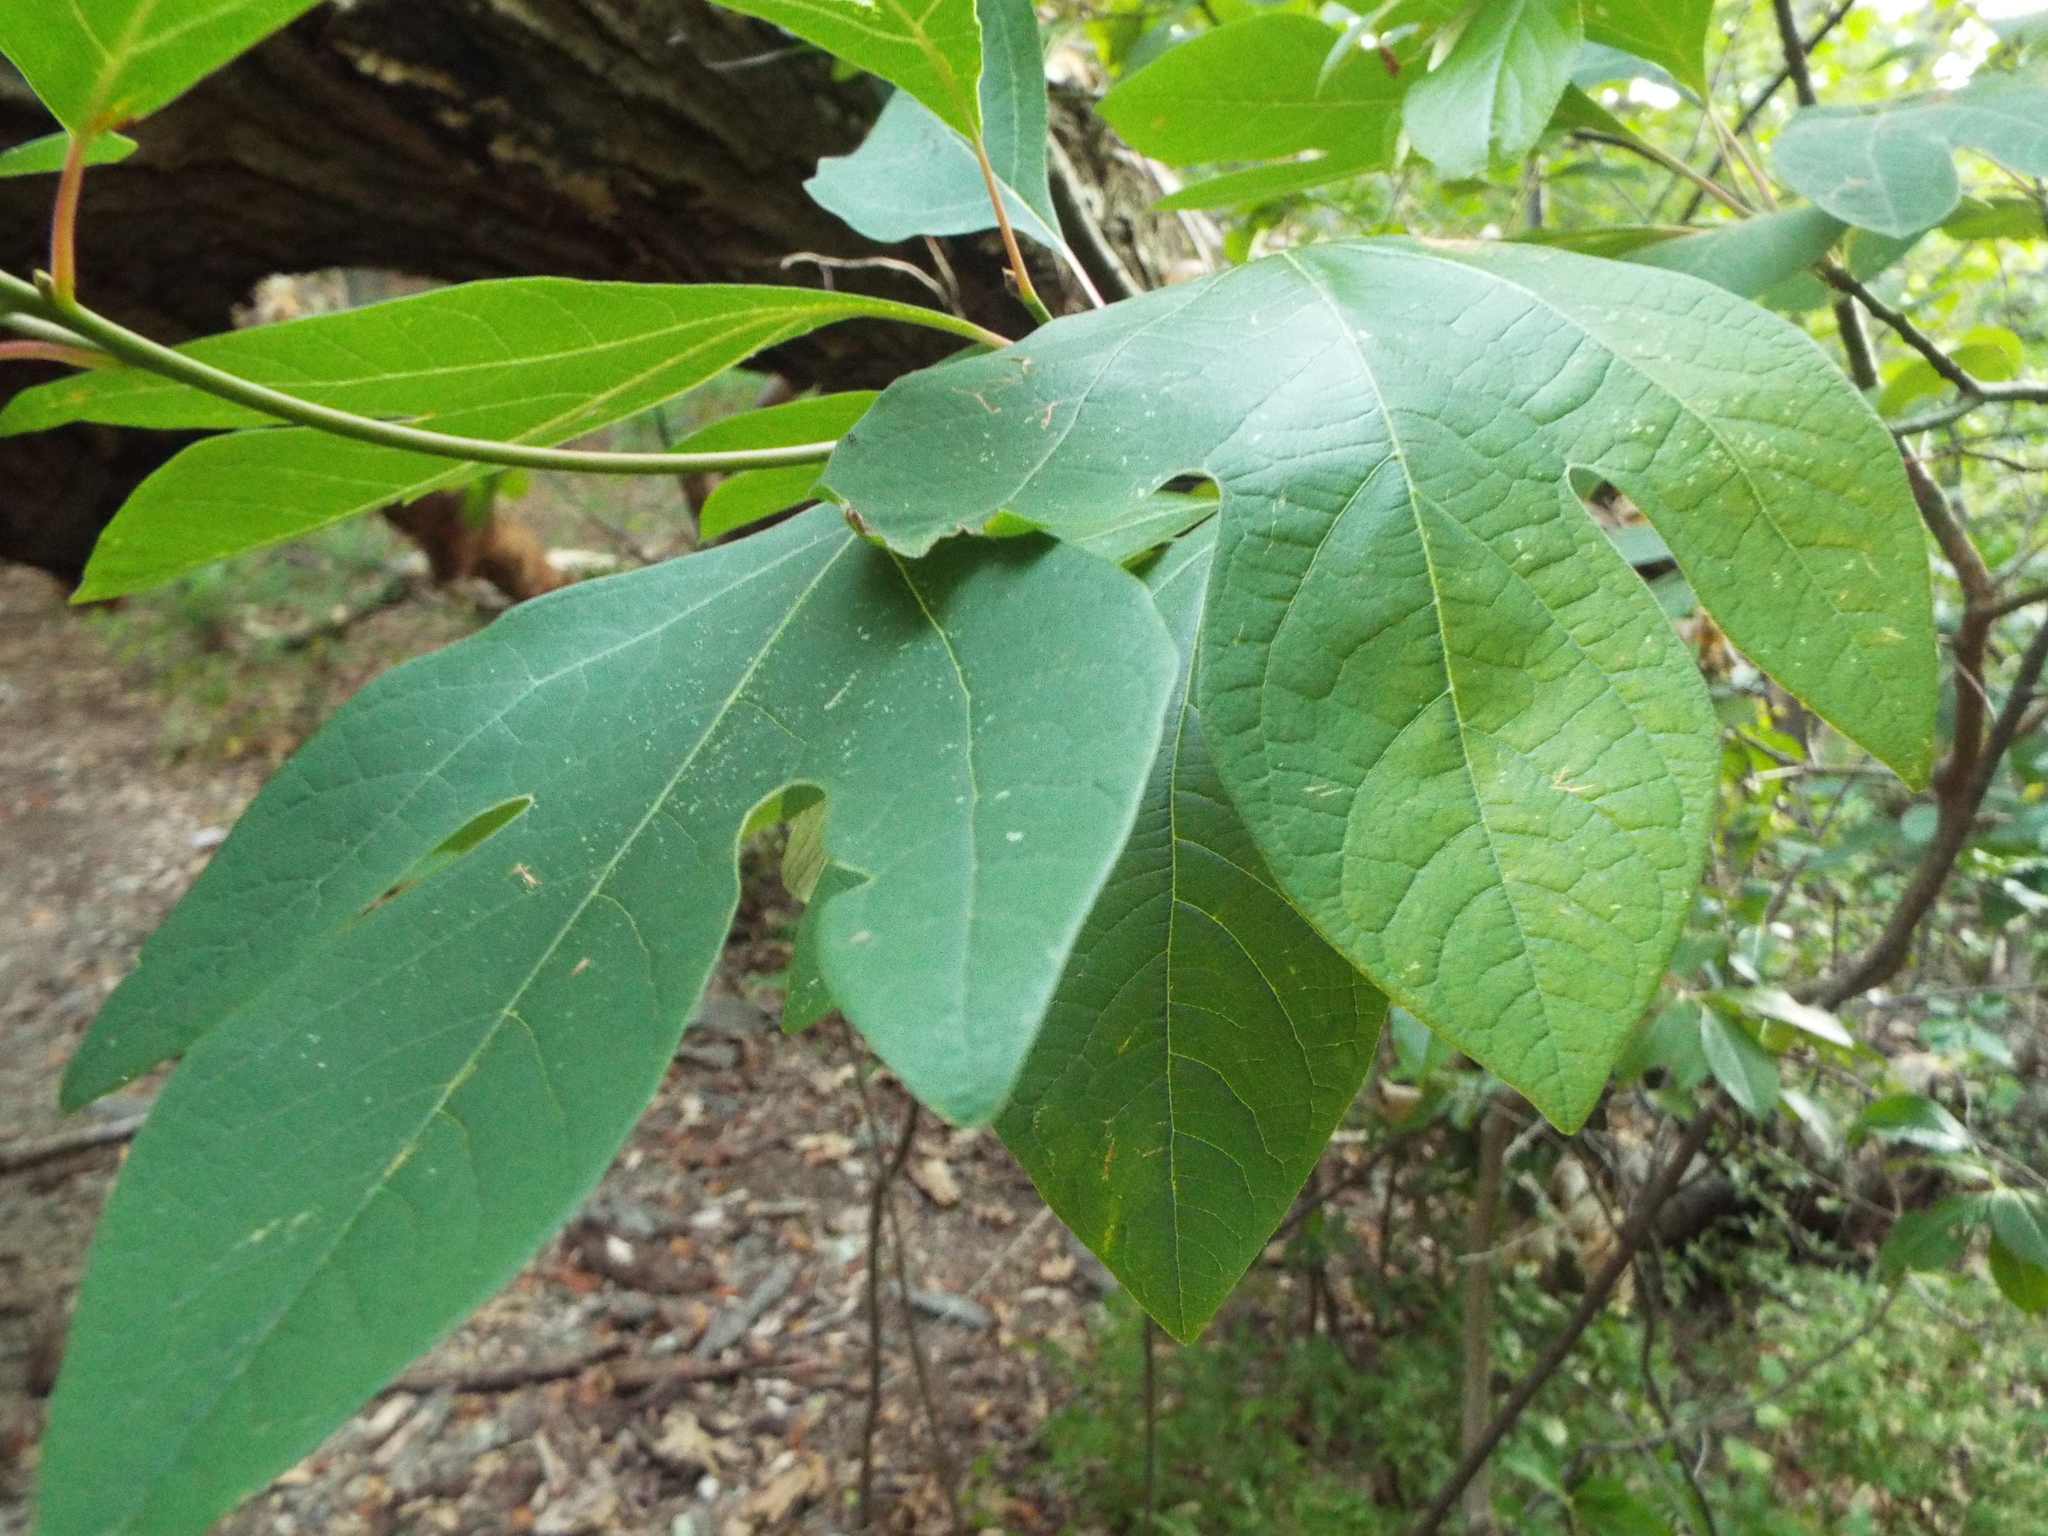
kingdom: Plantae
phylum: Tracheophyta
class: Magnoliopsida
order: Laurales
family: Lauraceae
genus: Sassafras
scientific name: Sassafras albidum
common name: Sassafras
